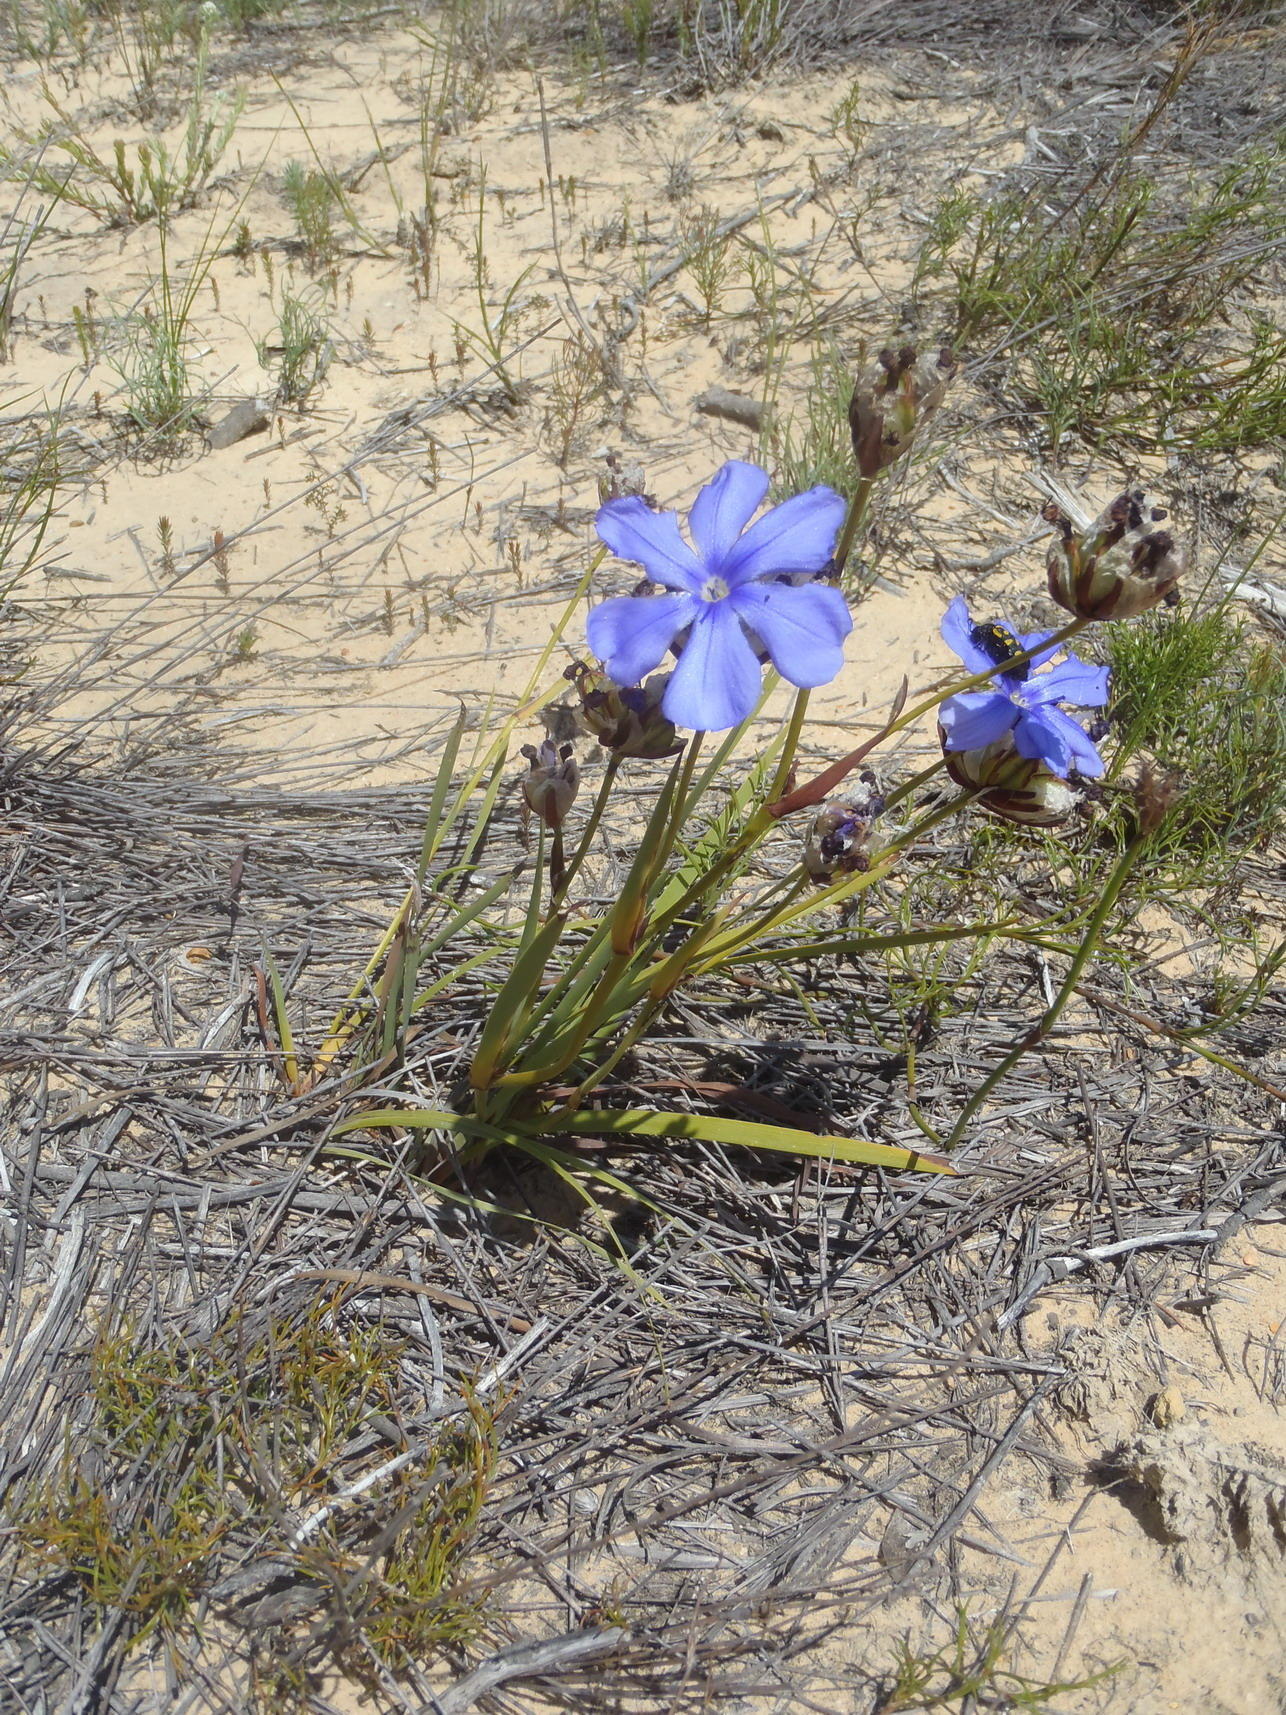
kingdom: Plantae
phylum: Tracheophyta
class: Liliopsida
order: Asparagales
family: Iridaceae
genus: Aristea
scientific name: Aristea oligocephala
